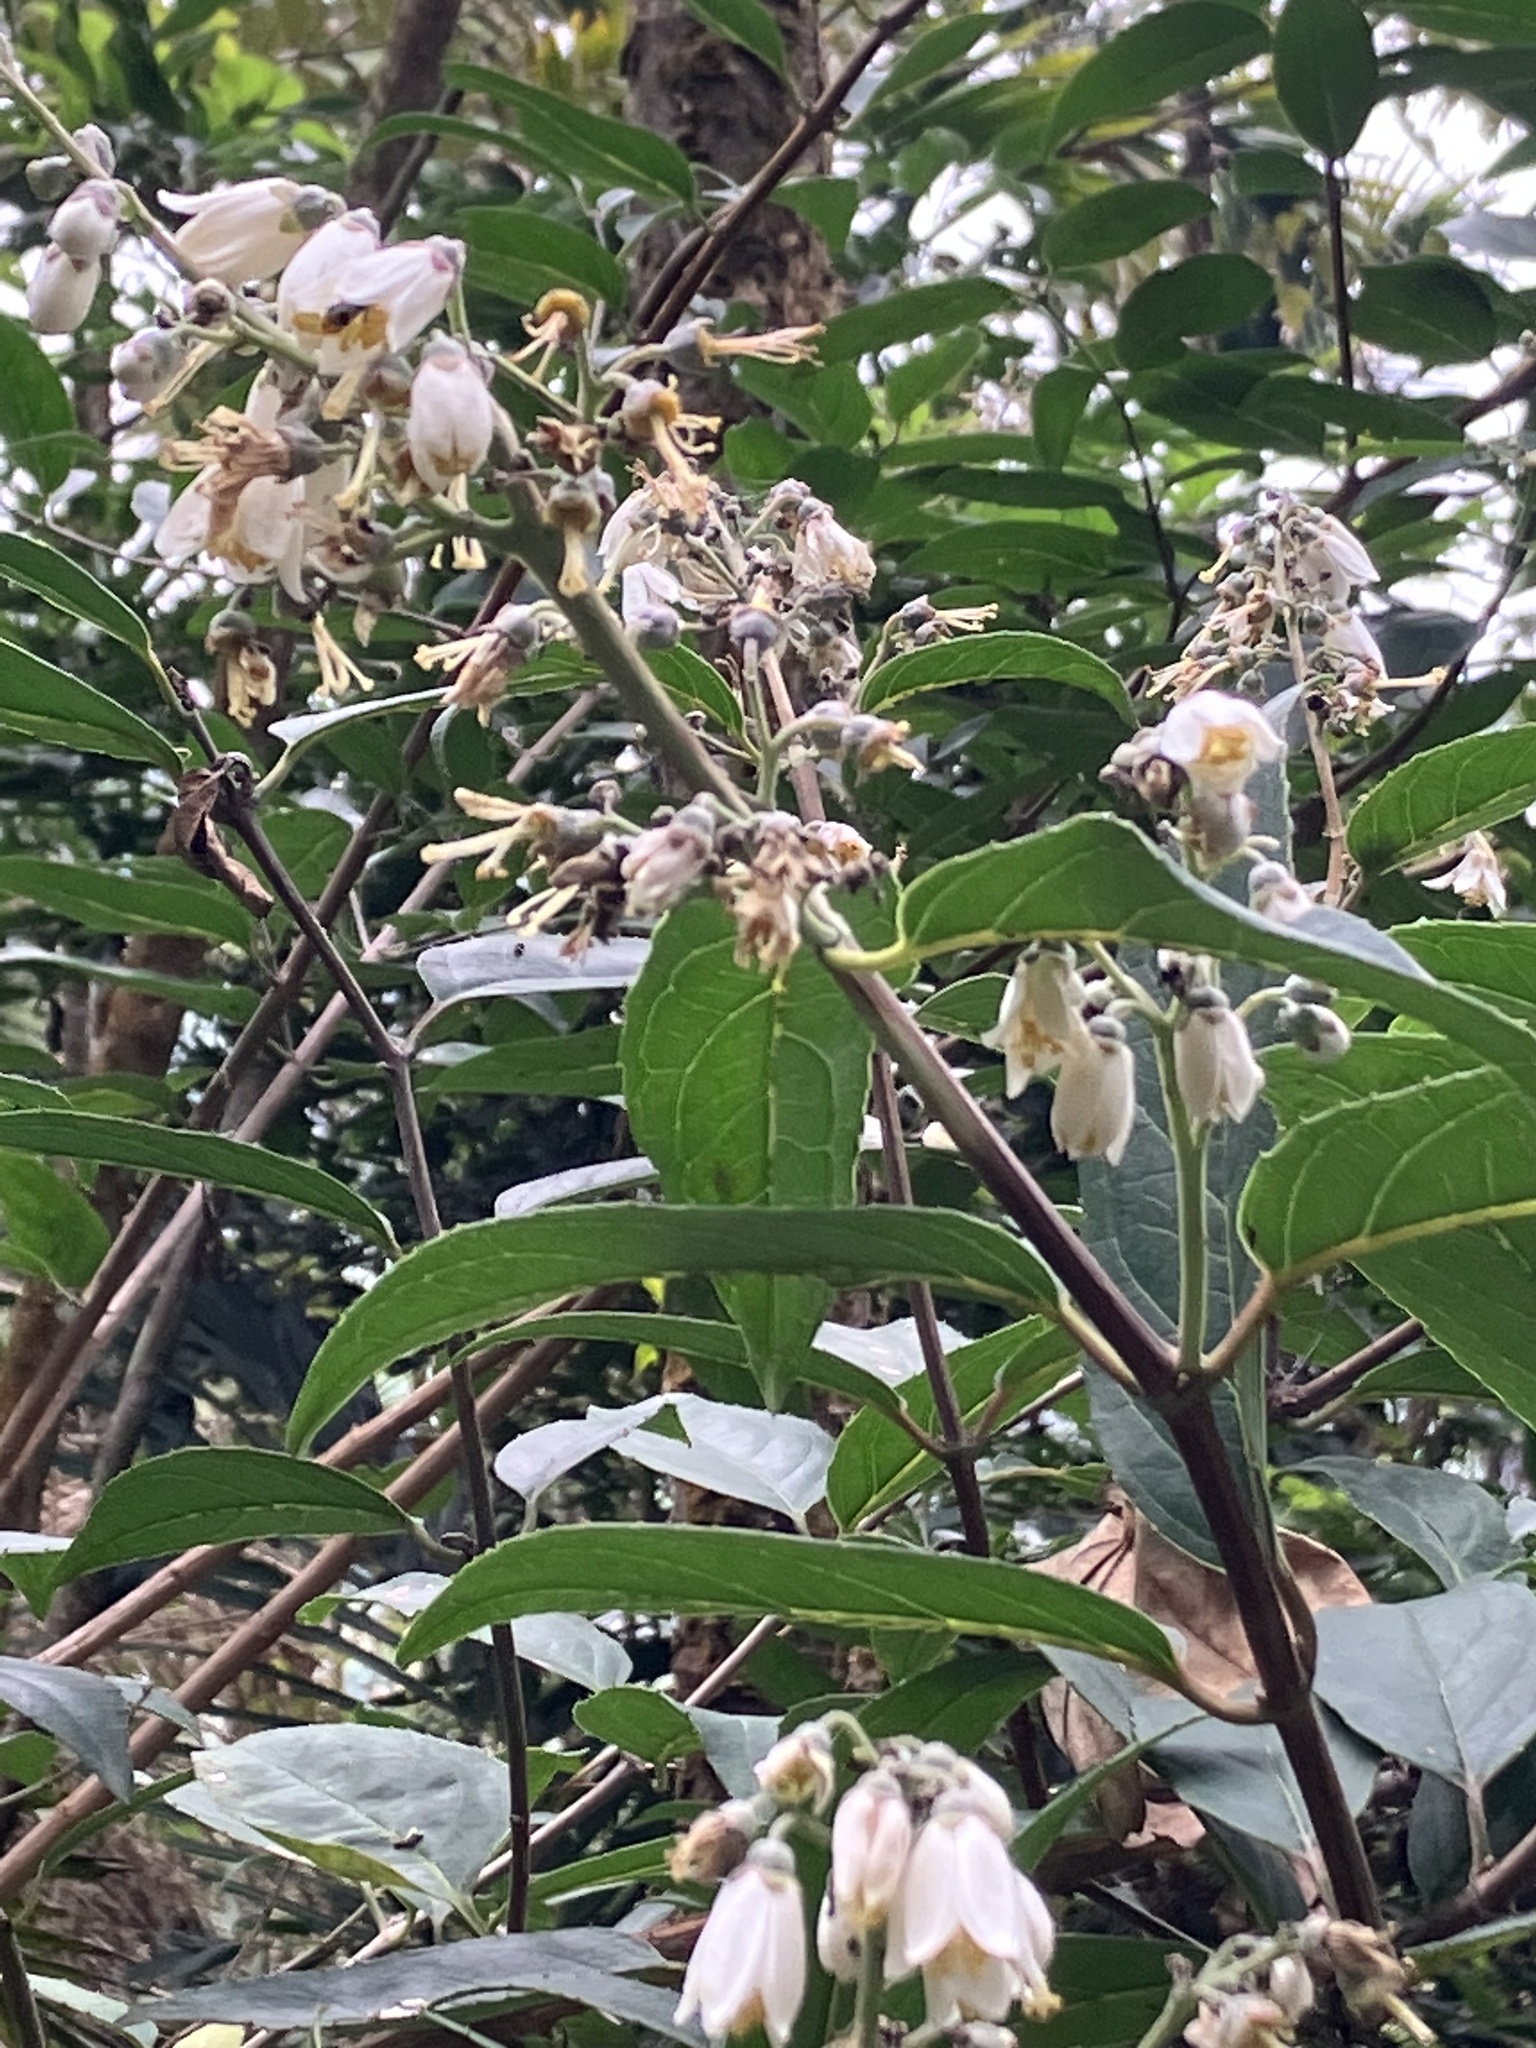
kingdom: Plantae
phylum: Tracheophyta
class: Magnoliopsida
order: Cornales
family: Hydrangeaceae
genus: Deutzia
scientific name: Deutzia pulchra
